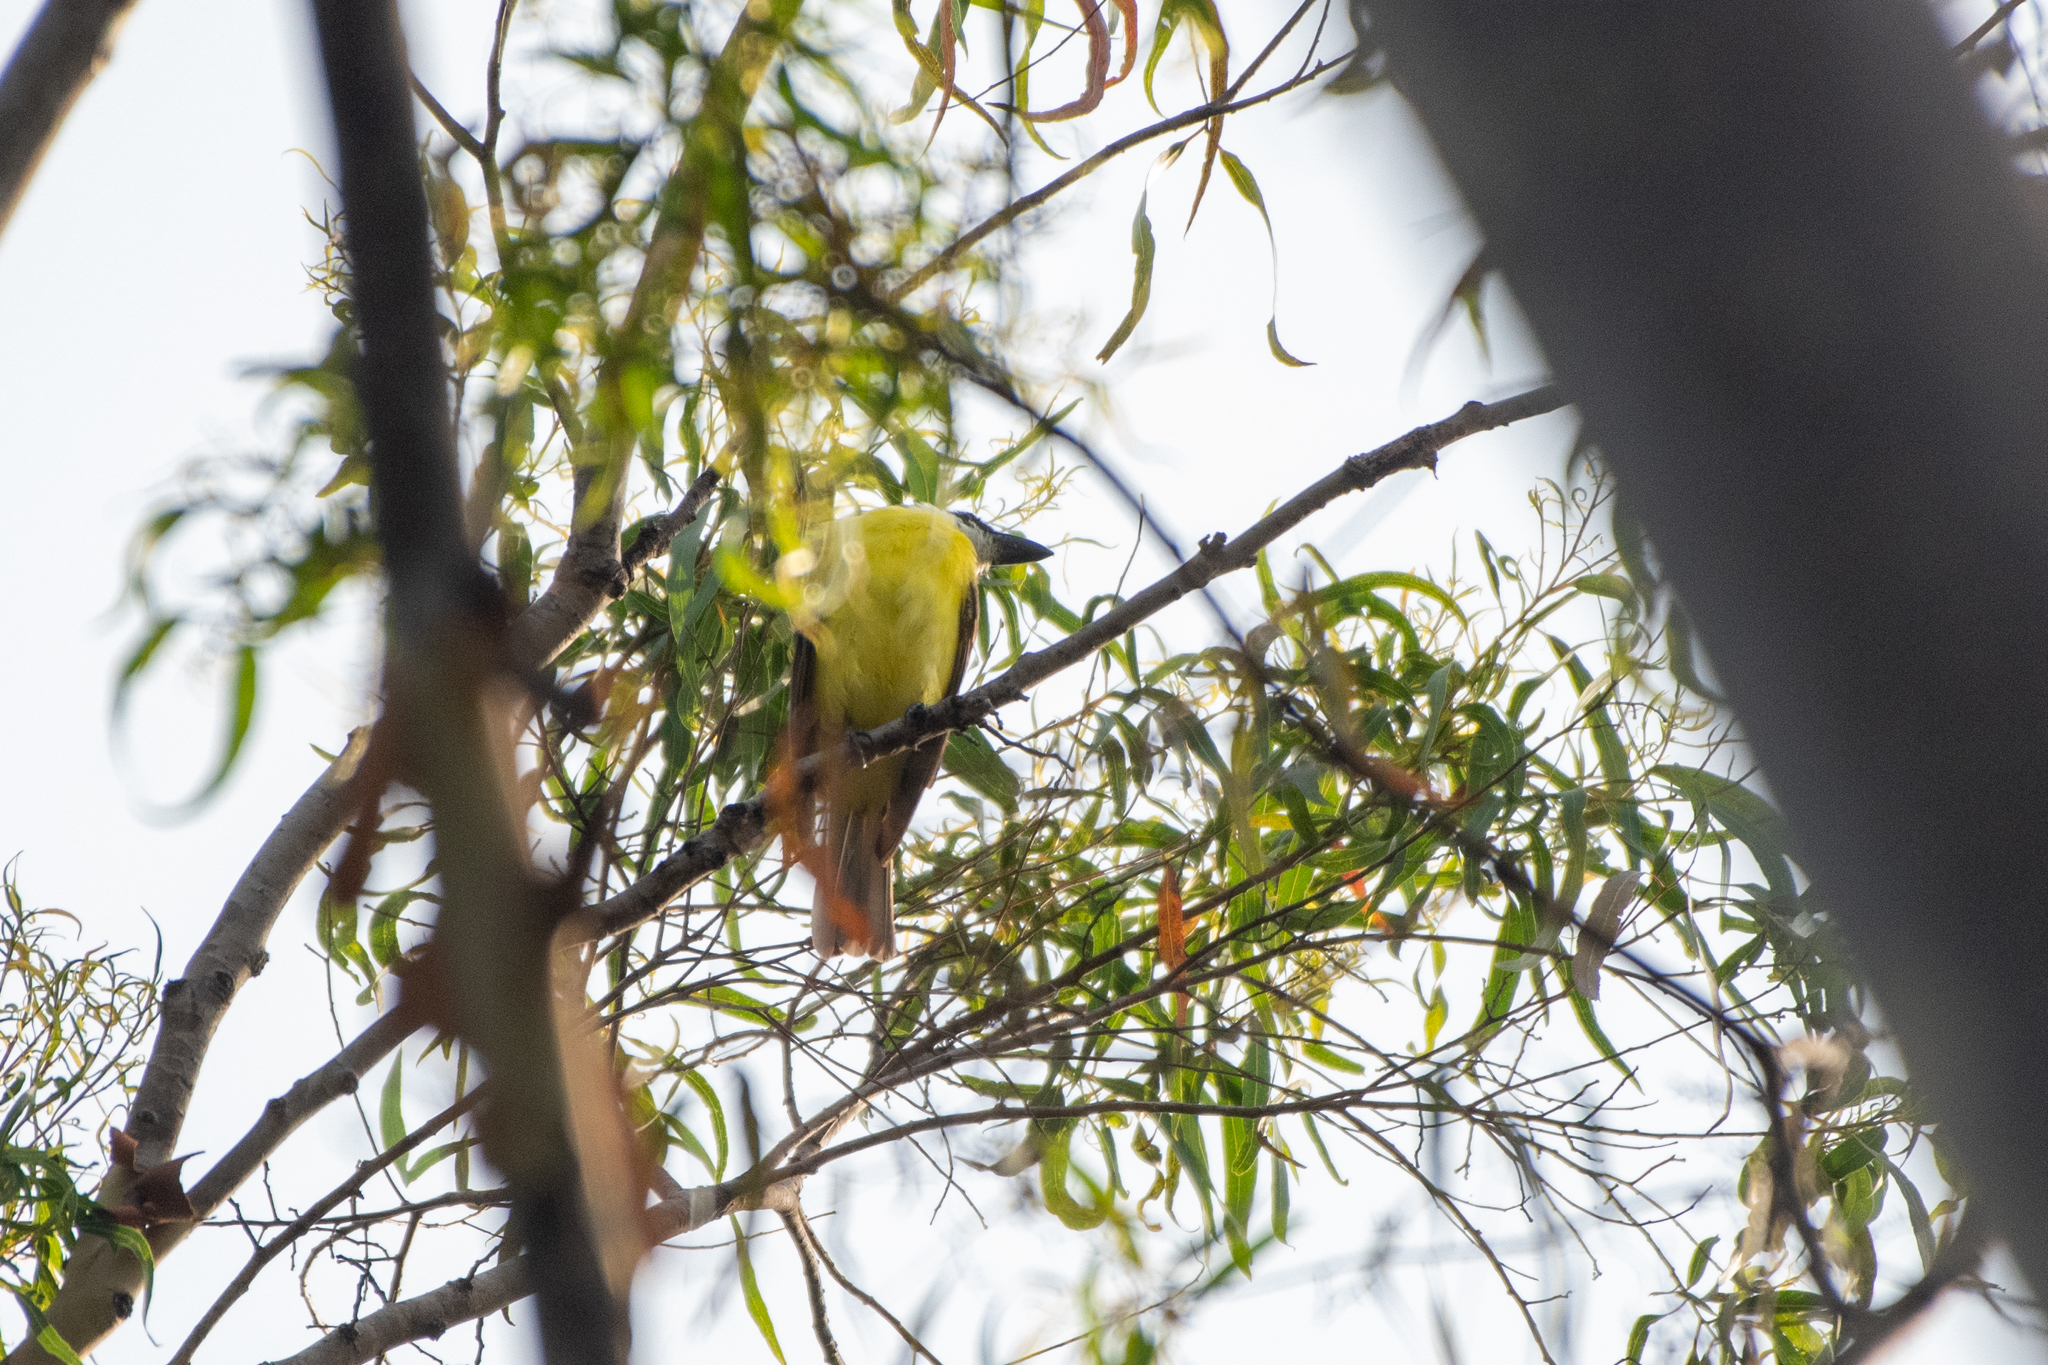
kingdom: Animalia
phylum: Chordata
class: Aves
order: Passeriformes
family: Tyrannidae
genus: Megarynchus
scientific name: Megarynchus pitangua
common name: Boat-billed flycatcher
